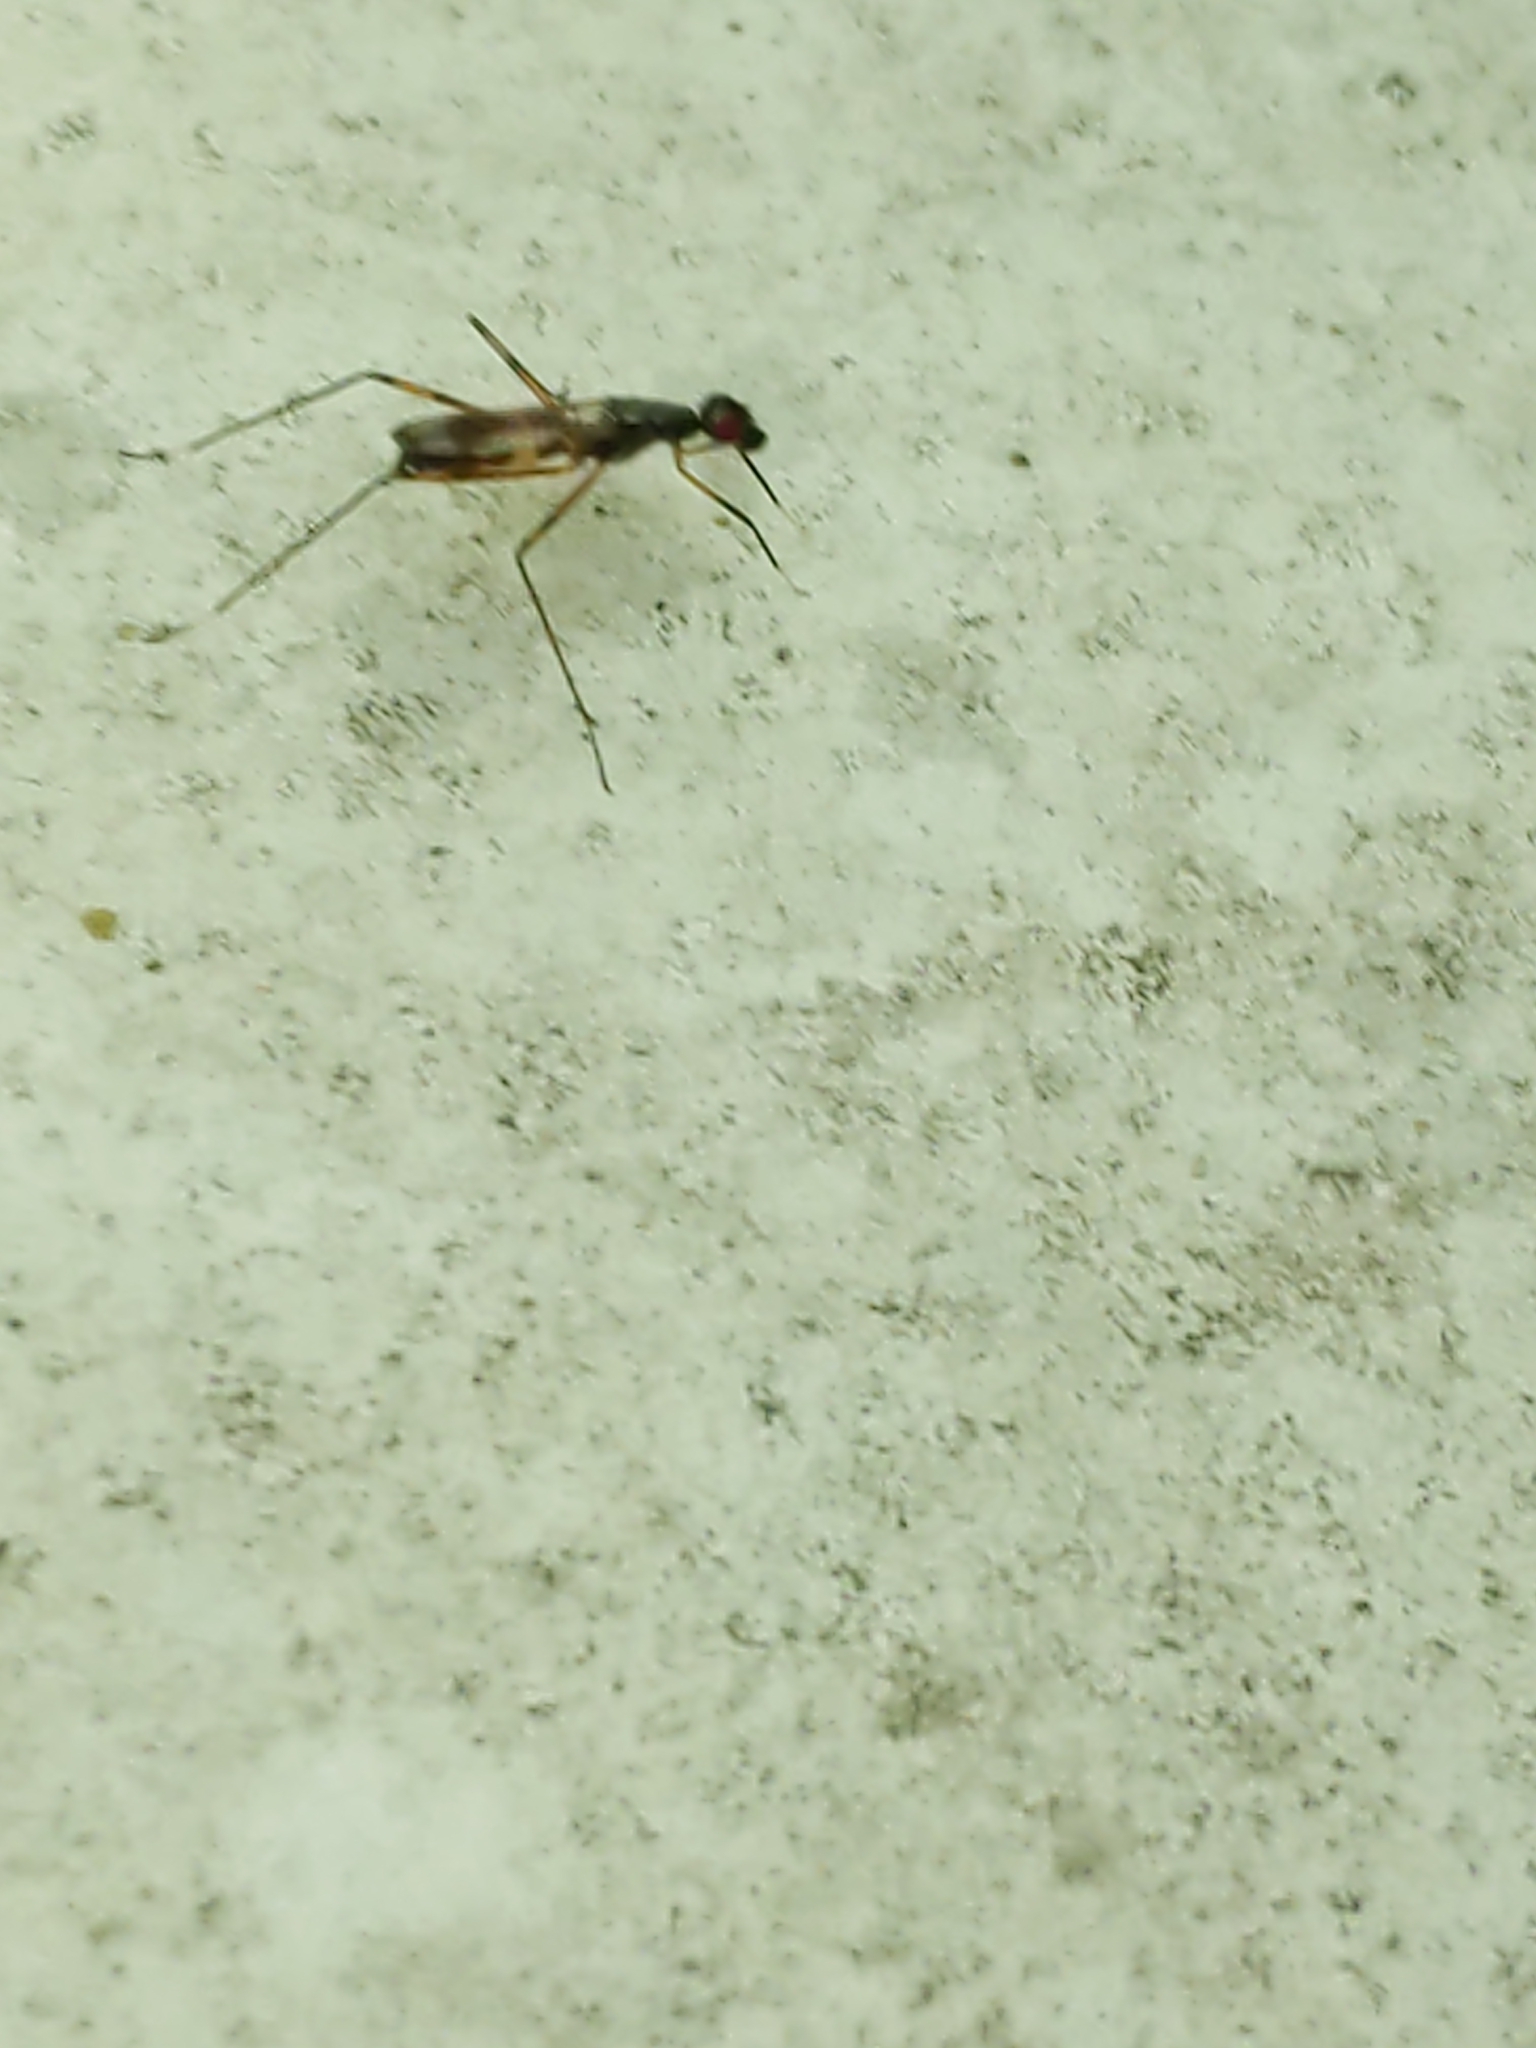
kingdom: Animalia
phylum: Arthropoda
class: Insecta
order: Diptera
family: Micropezidae
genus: Rainieria
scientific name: Rainieria antennaepes
